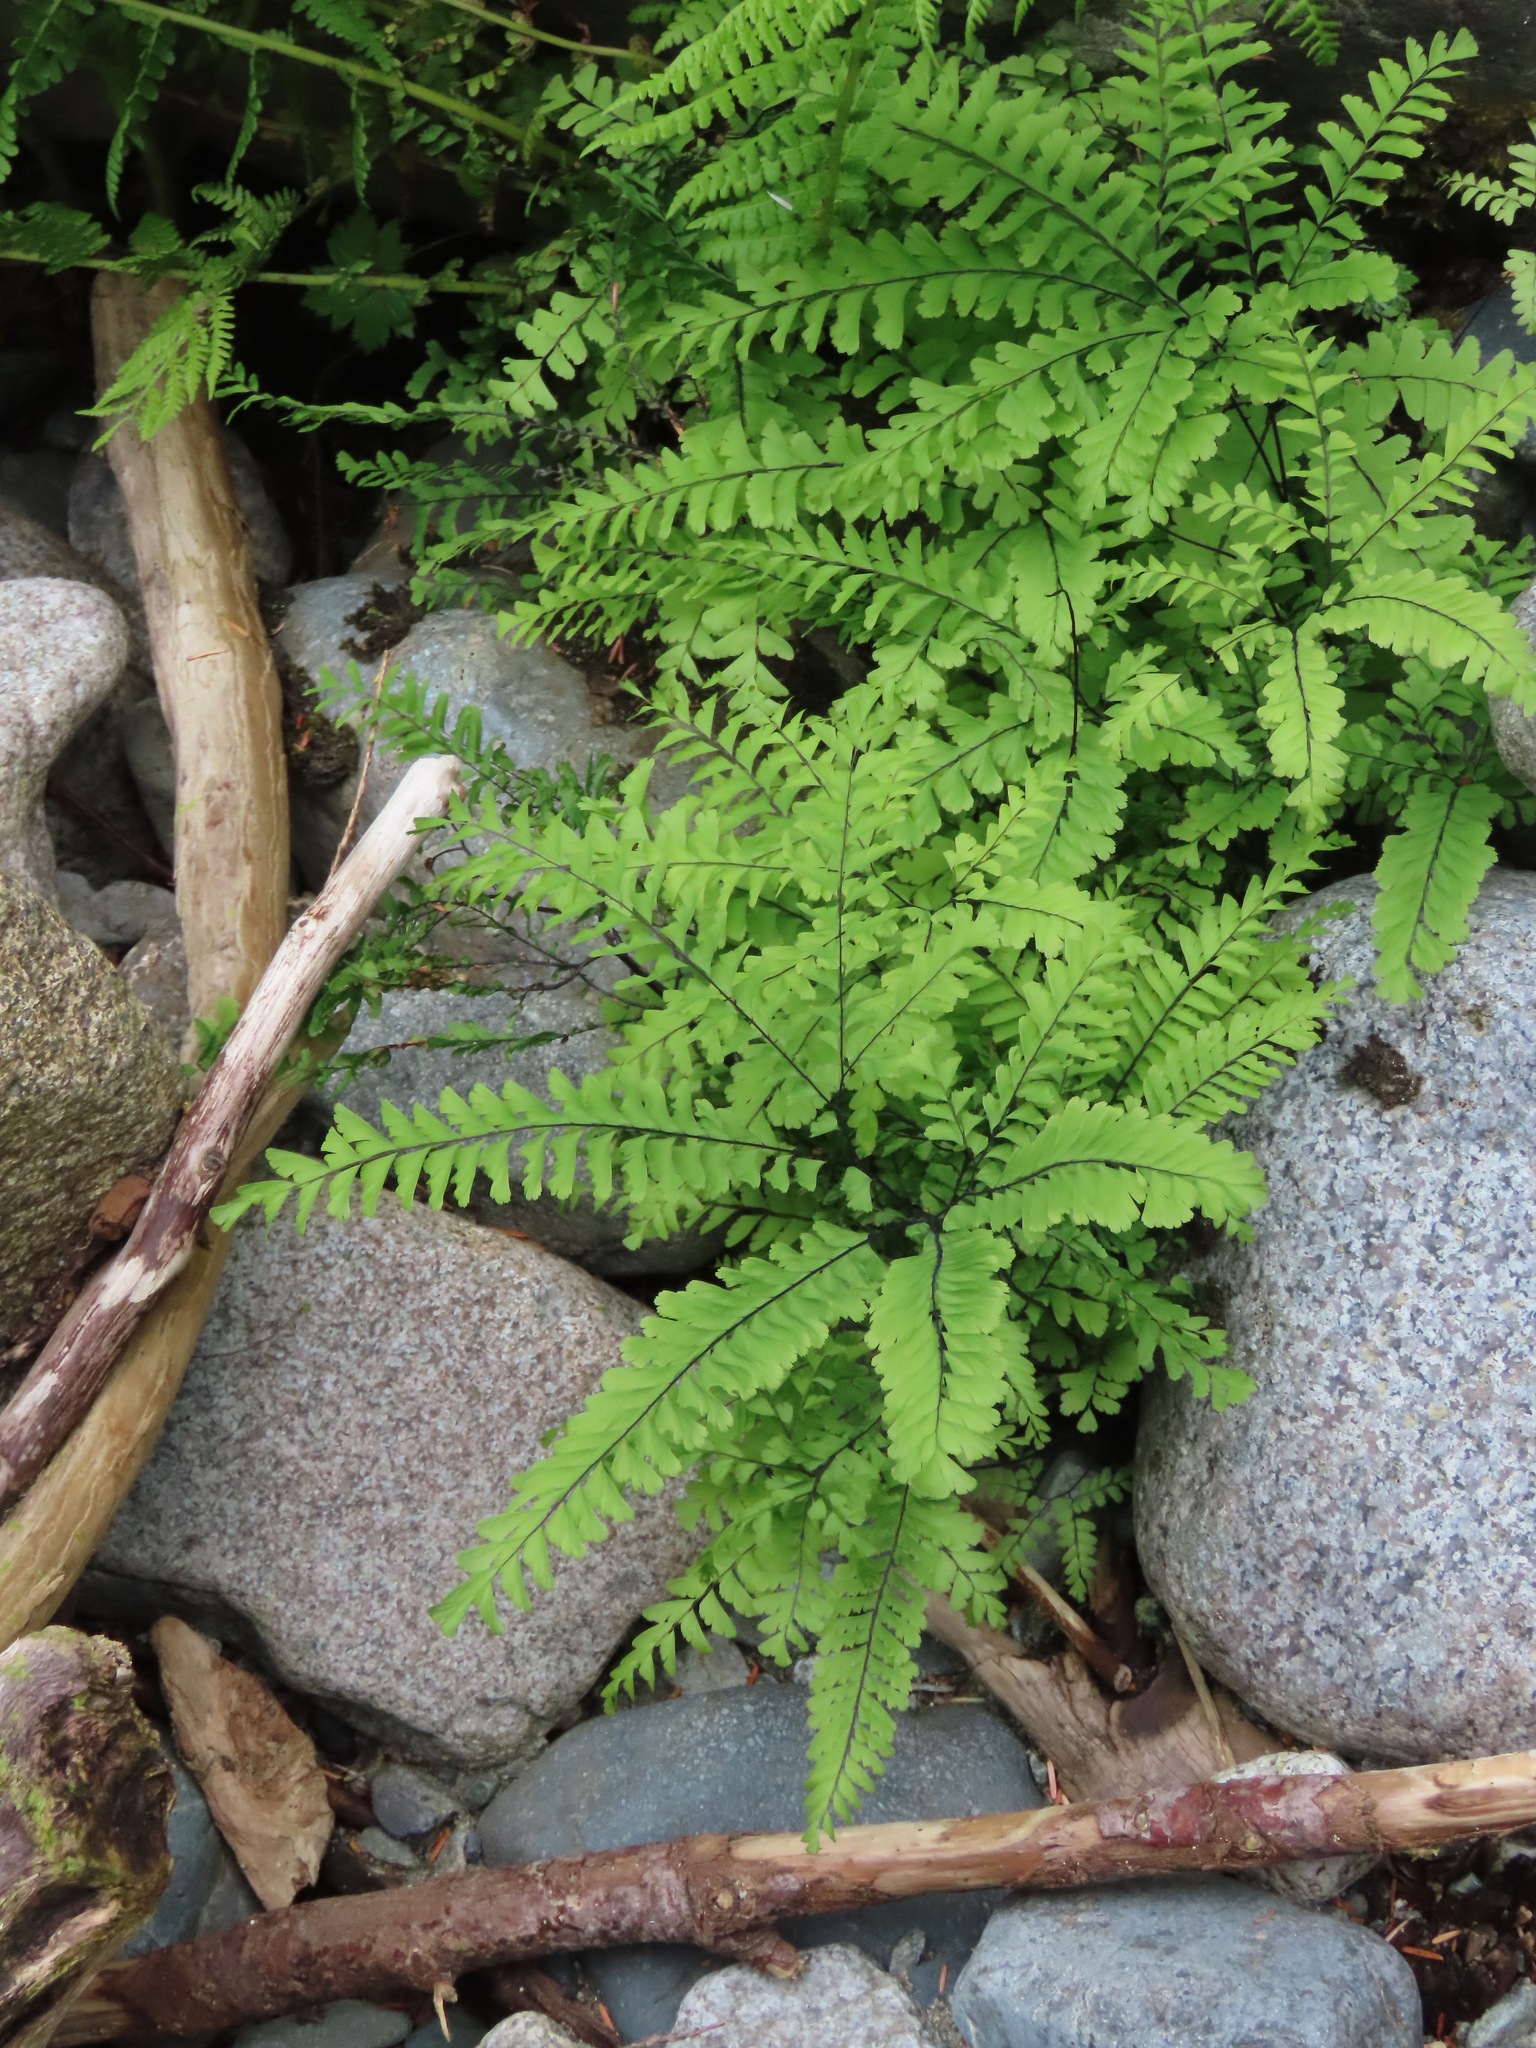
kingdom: Plantae
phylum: Tracheophyta
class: Polypodiopsida
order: Polypodiales
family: Pteridaceae
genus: Adiantum
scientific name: Adiantum aleuticum
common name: Aleutian maidenhair fern
